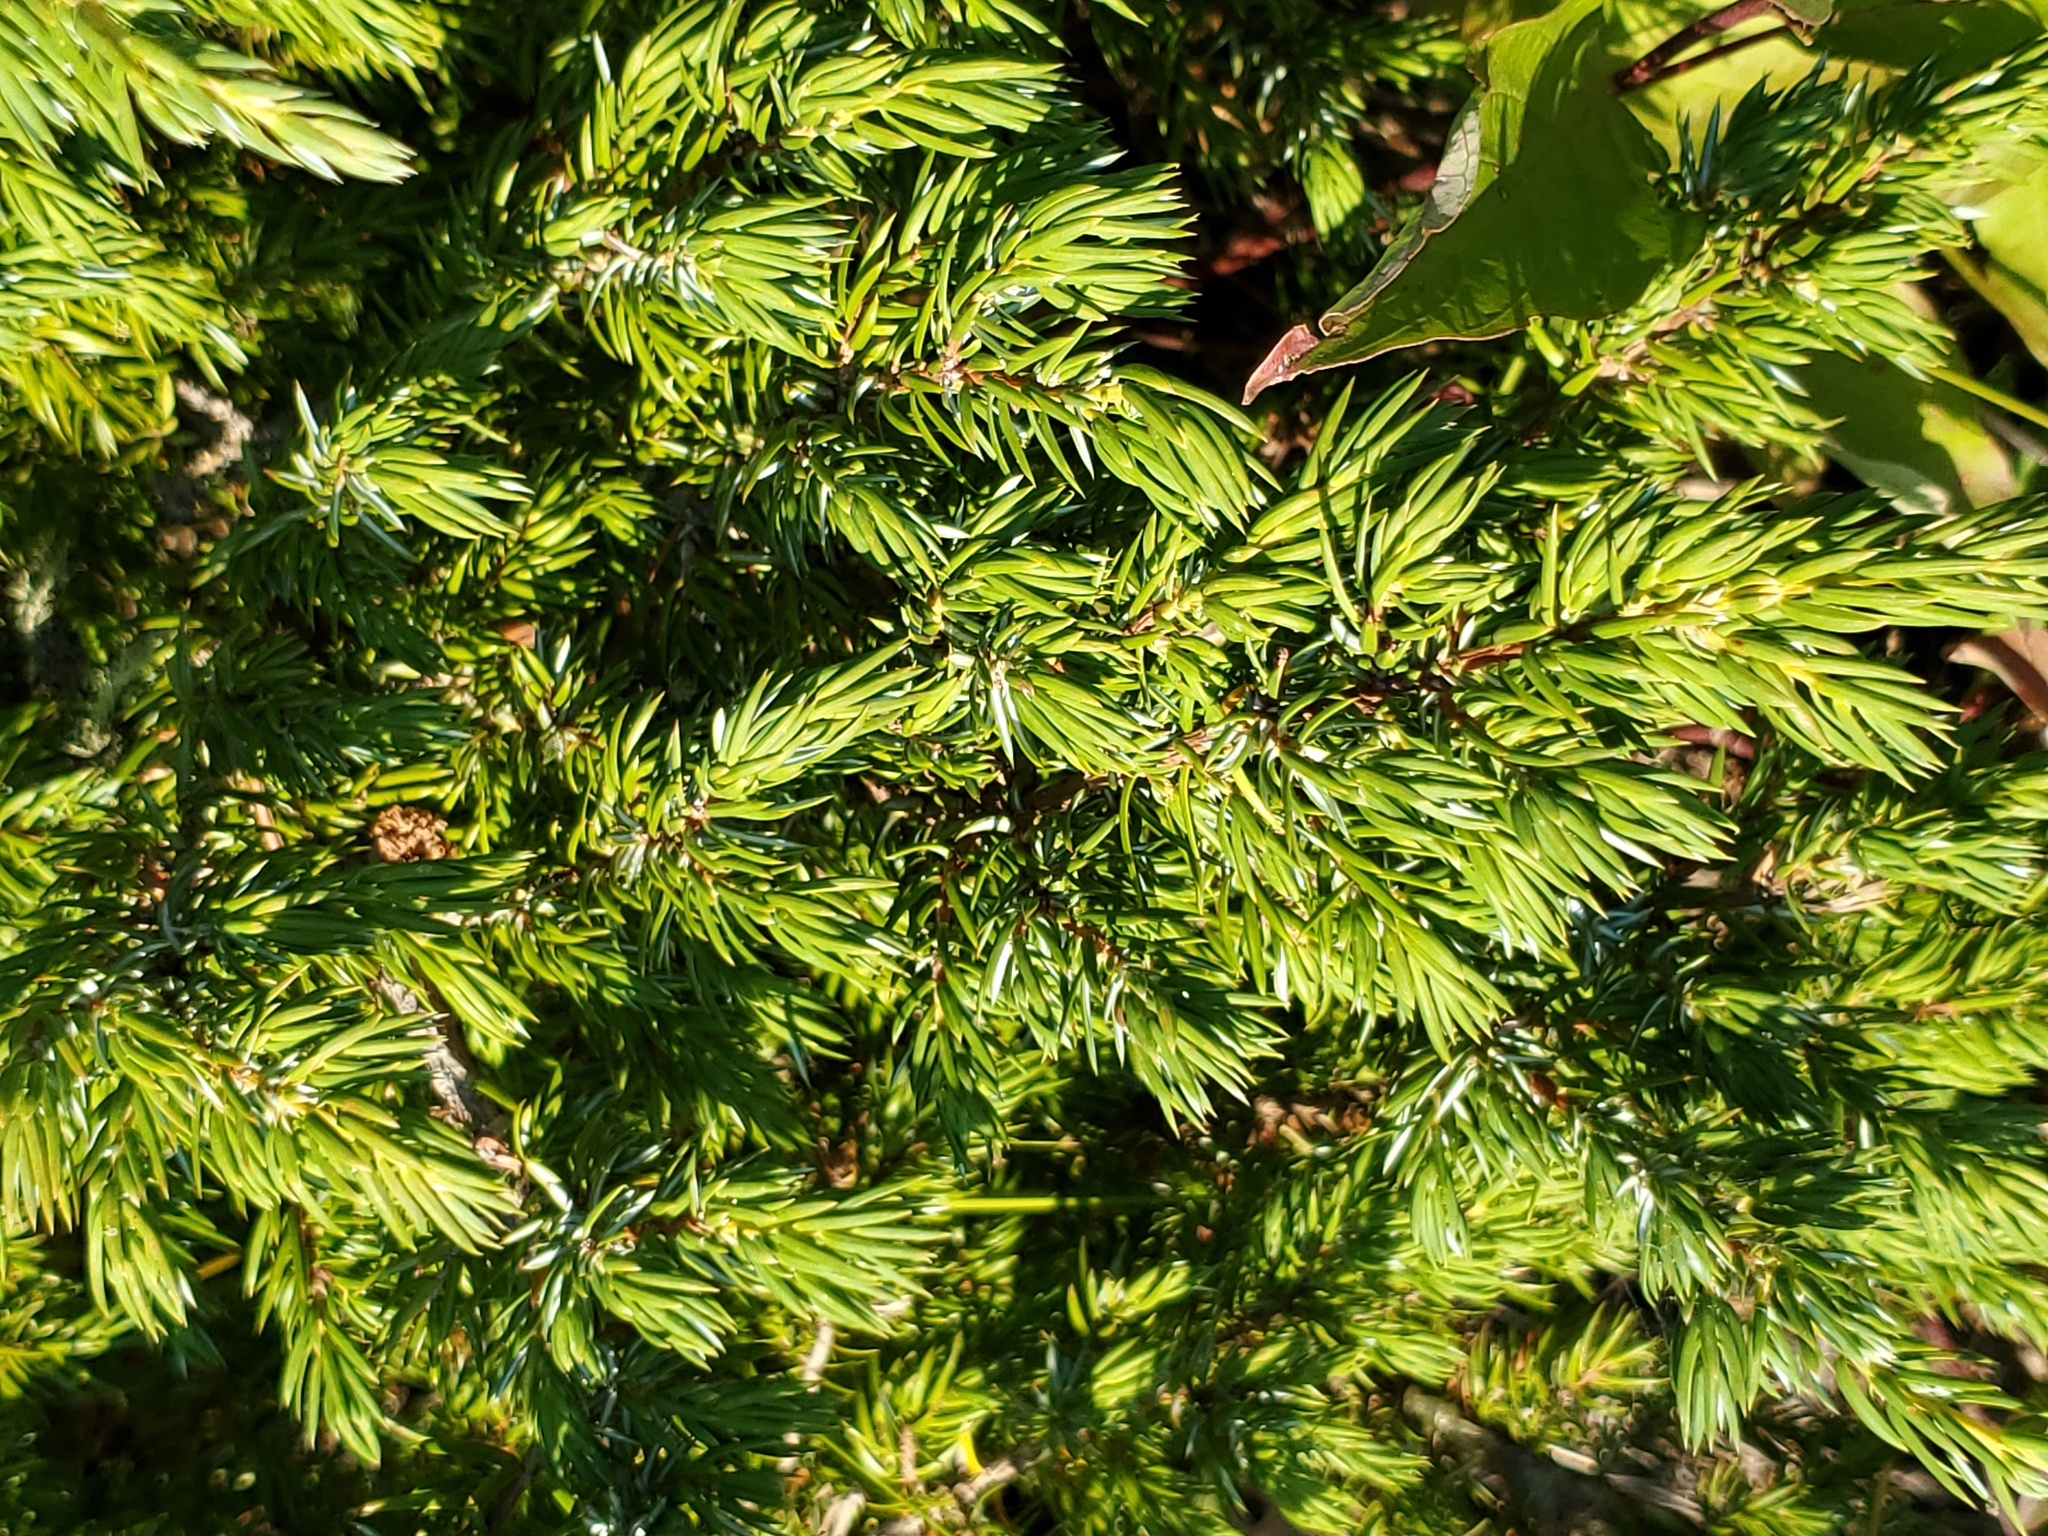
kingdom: Plantae
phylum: Tracheophyta
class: Pinopsida
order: Pinales
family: Cupressaceae
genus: Juniperus
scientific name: Juniperus communis
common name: Common juniper
